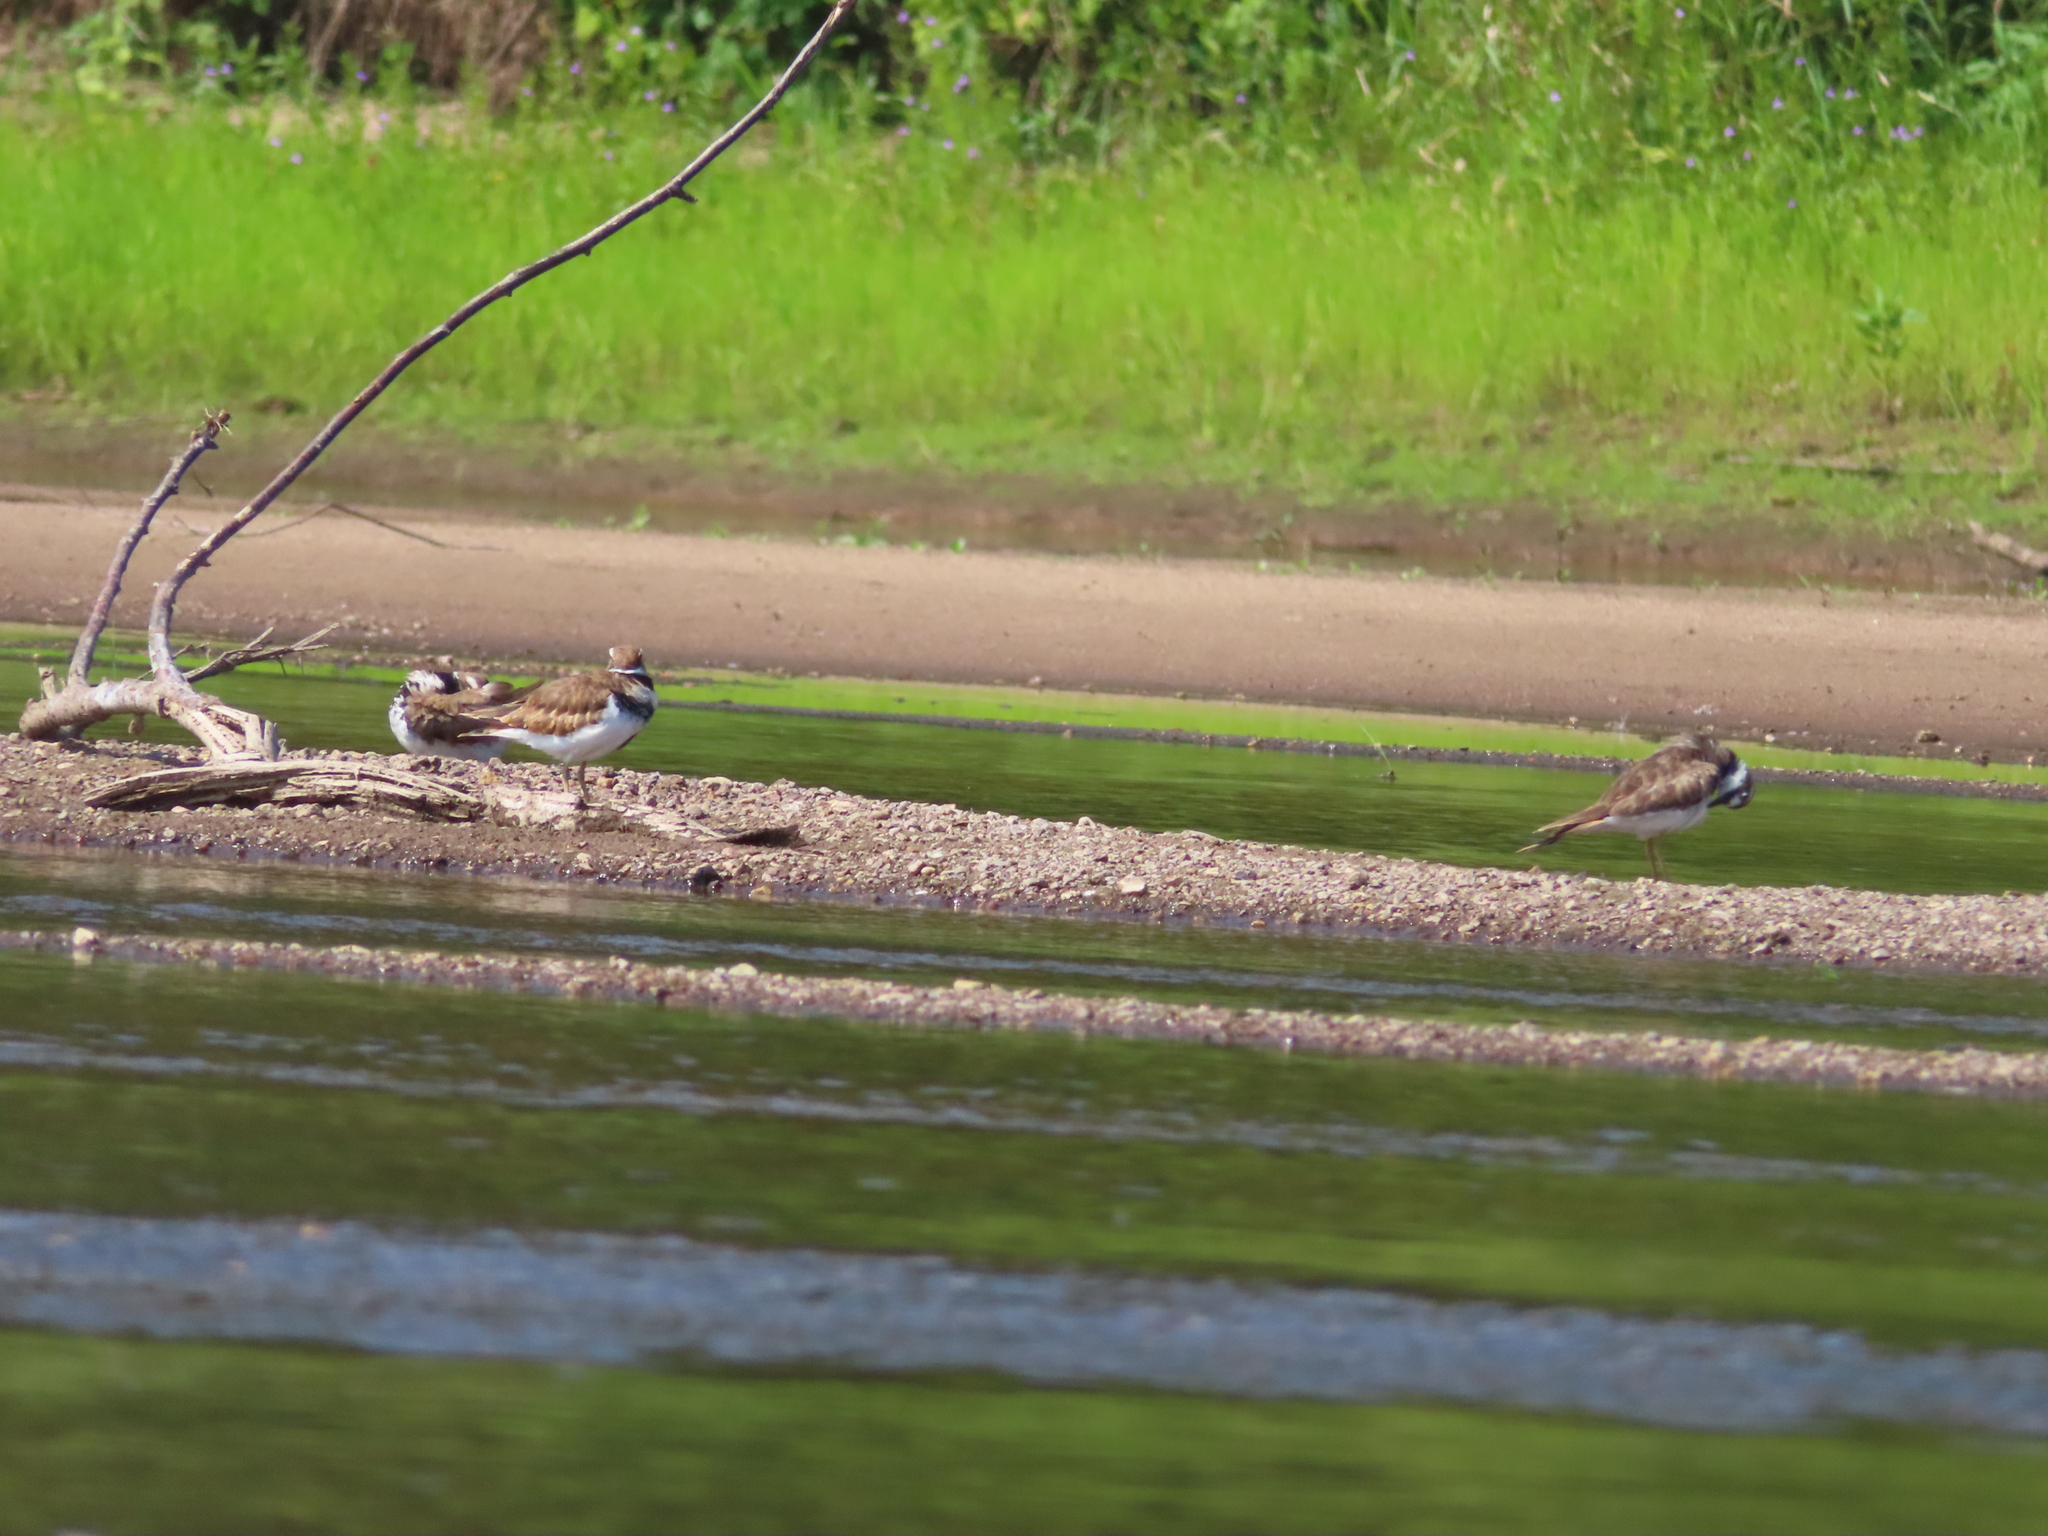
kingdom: Animalia
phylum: Chordata
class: Aves
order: Charadriiformes
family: Charadriidae
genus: Charadrius
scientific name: Charadrius vociferus
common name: Killdeer
